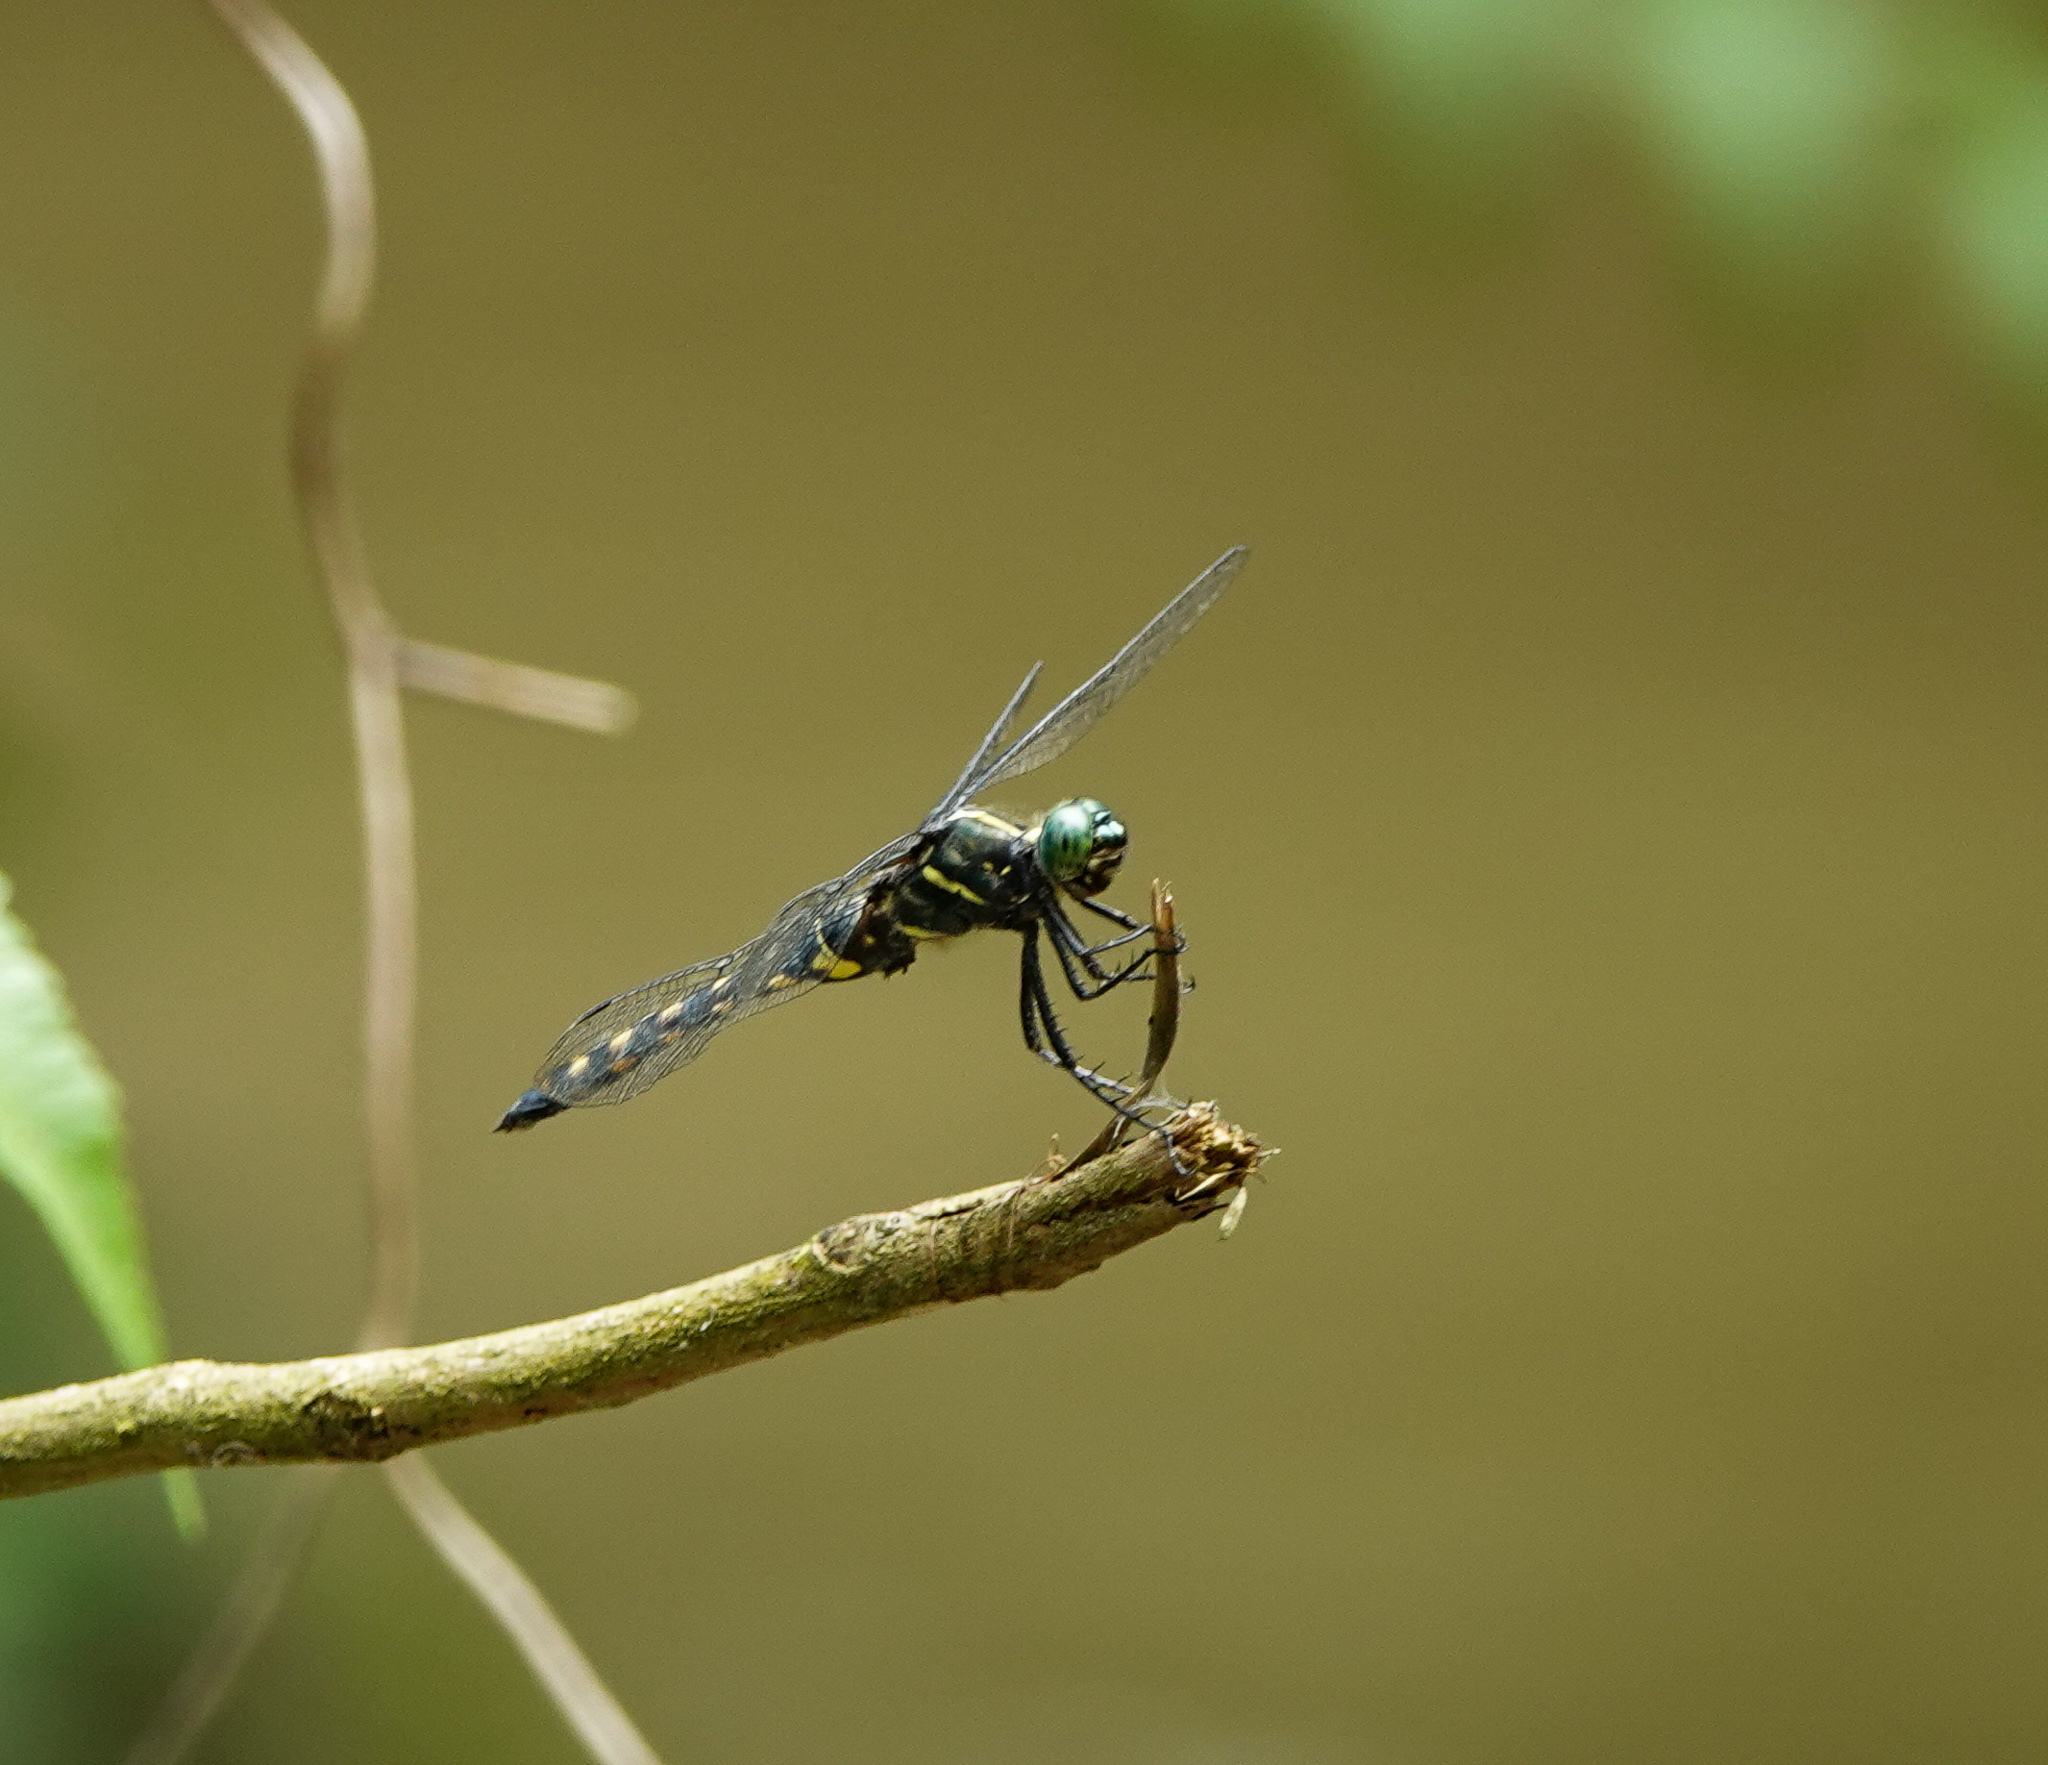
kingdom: Animalia
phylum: Arthropoda
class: Insecta
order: Odonata
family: Libellulidae
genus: Onychothemis
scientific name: Onychothemis testacea
